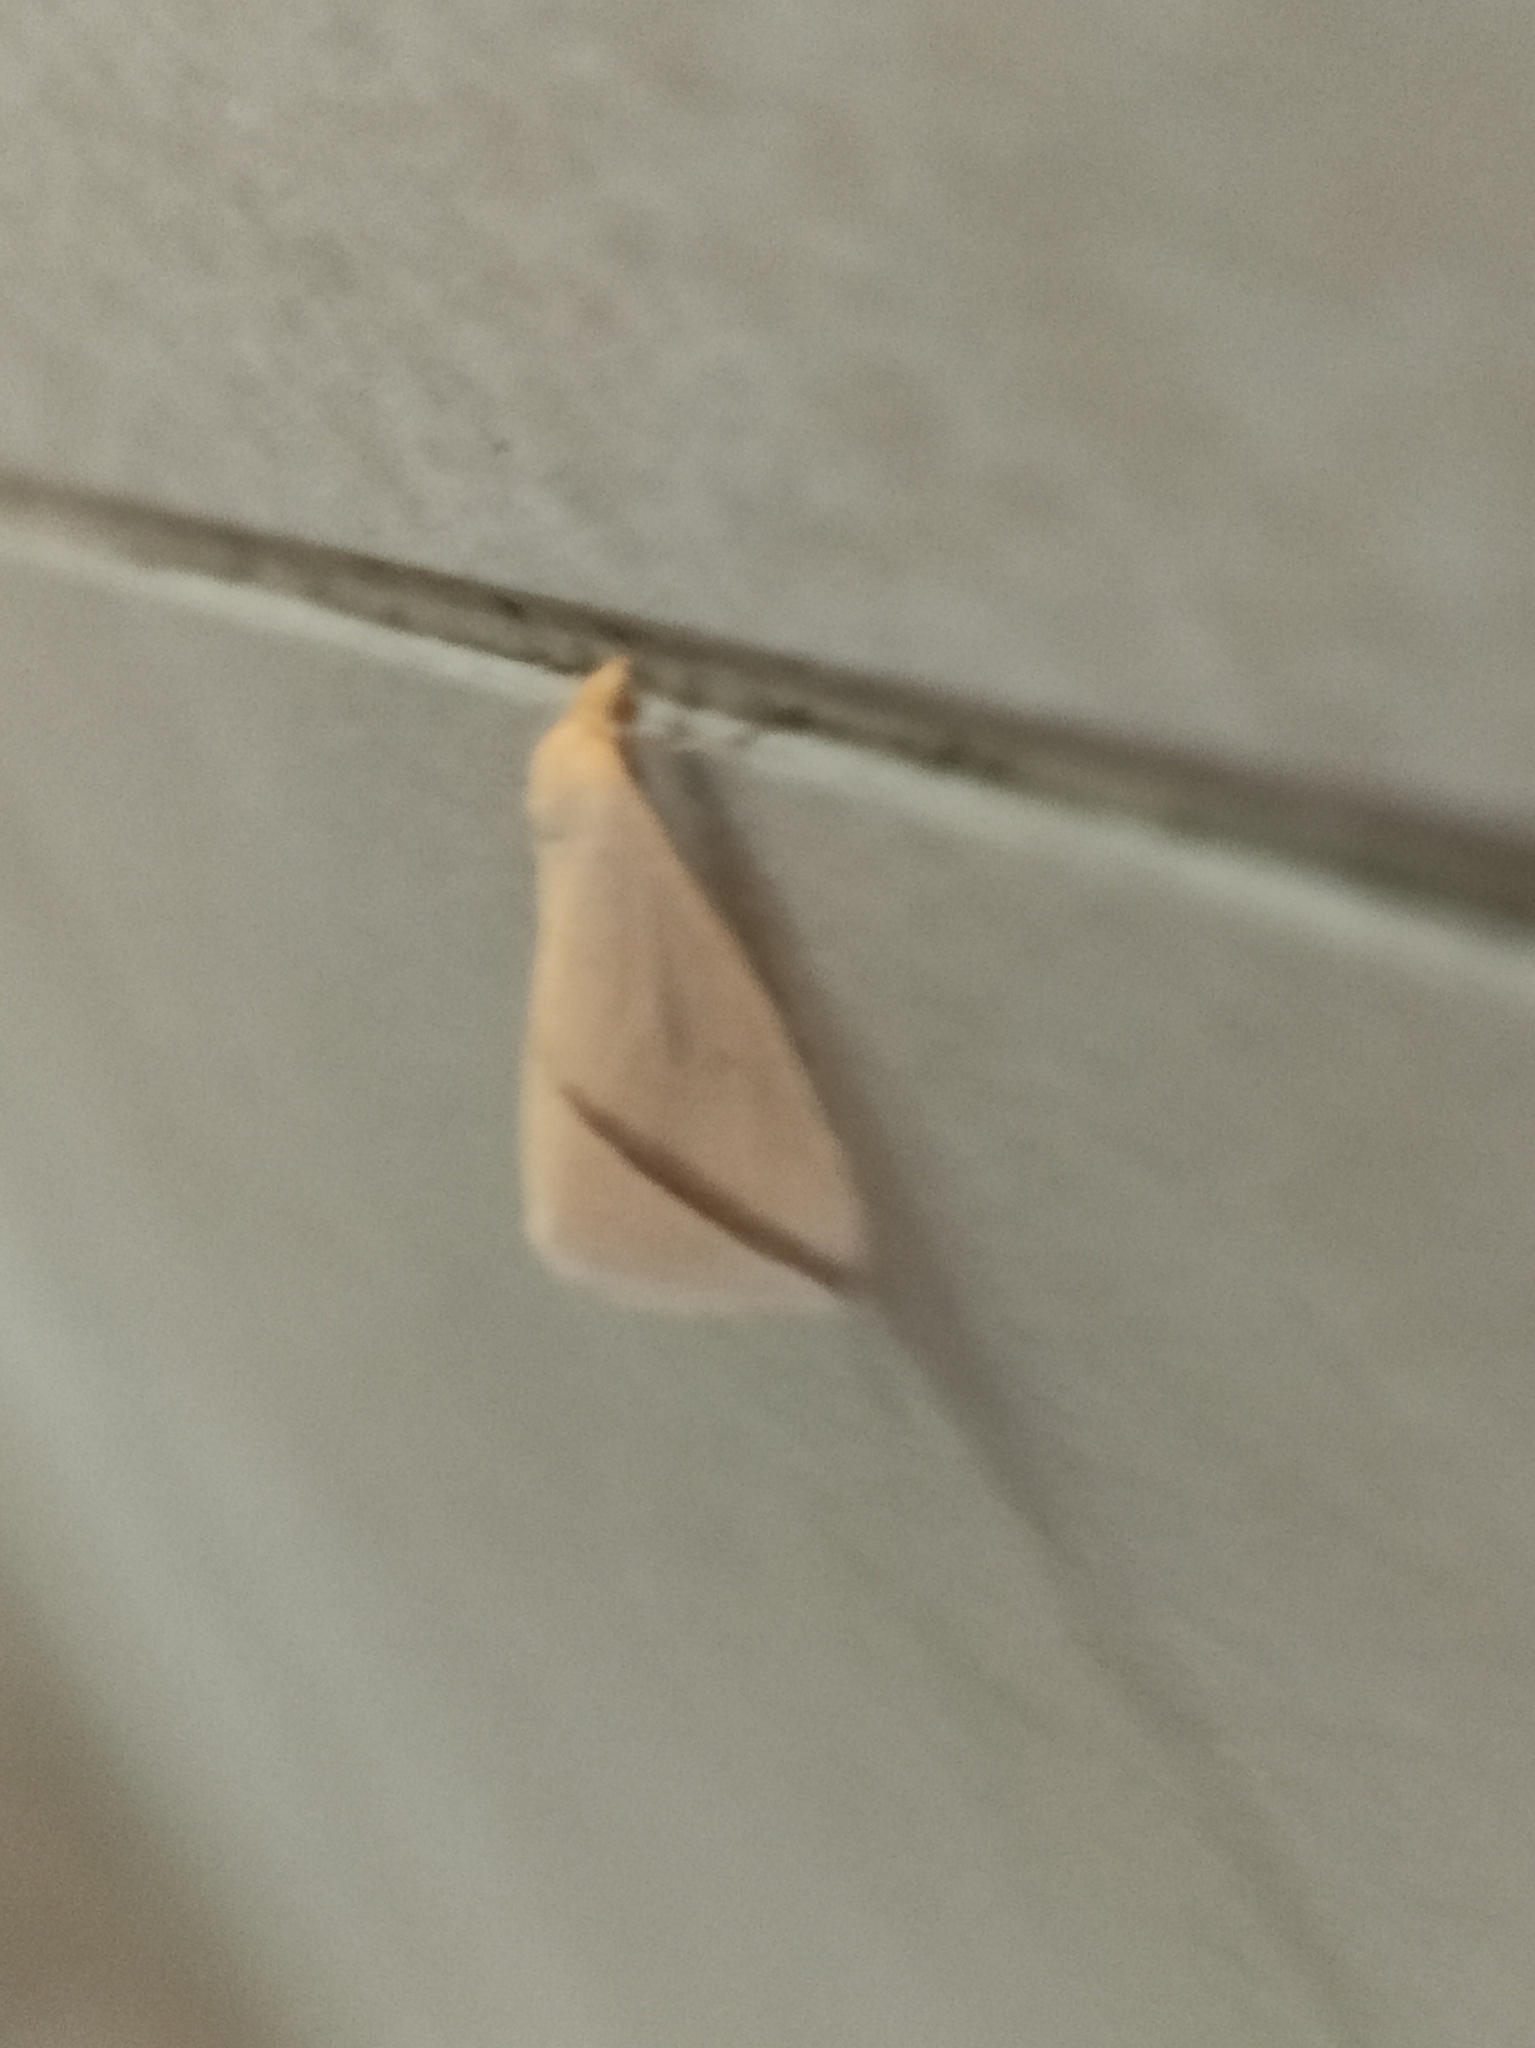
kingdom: Animalia
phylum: Arthropoda
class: Insecta
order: Lepidoptera
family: Geometridae
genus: Rhodometra
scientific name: Rhodometra sacraria
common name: Vestal
